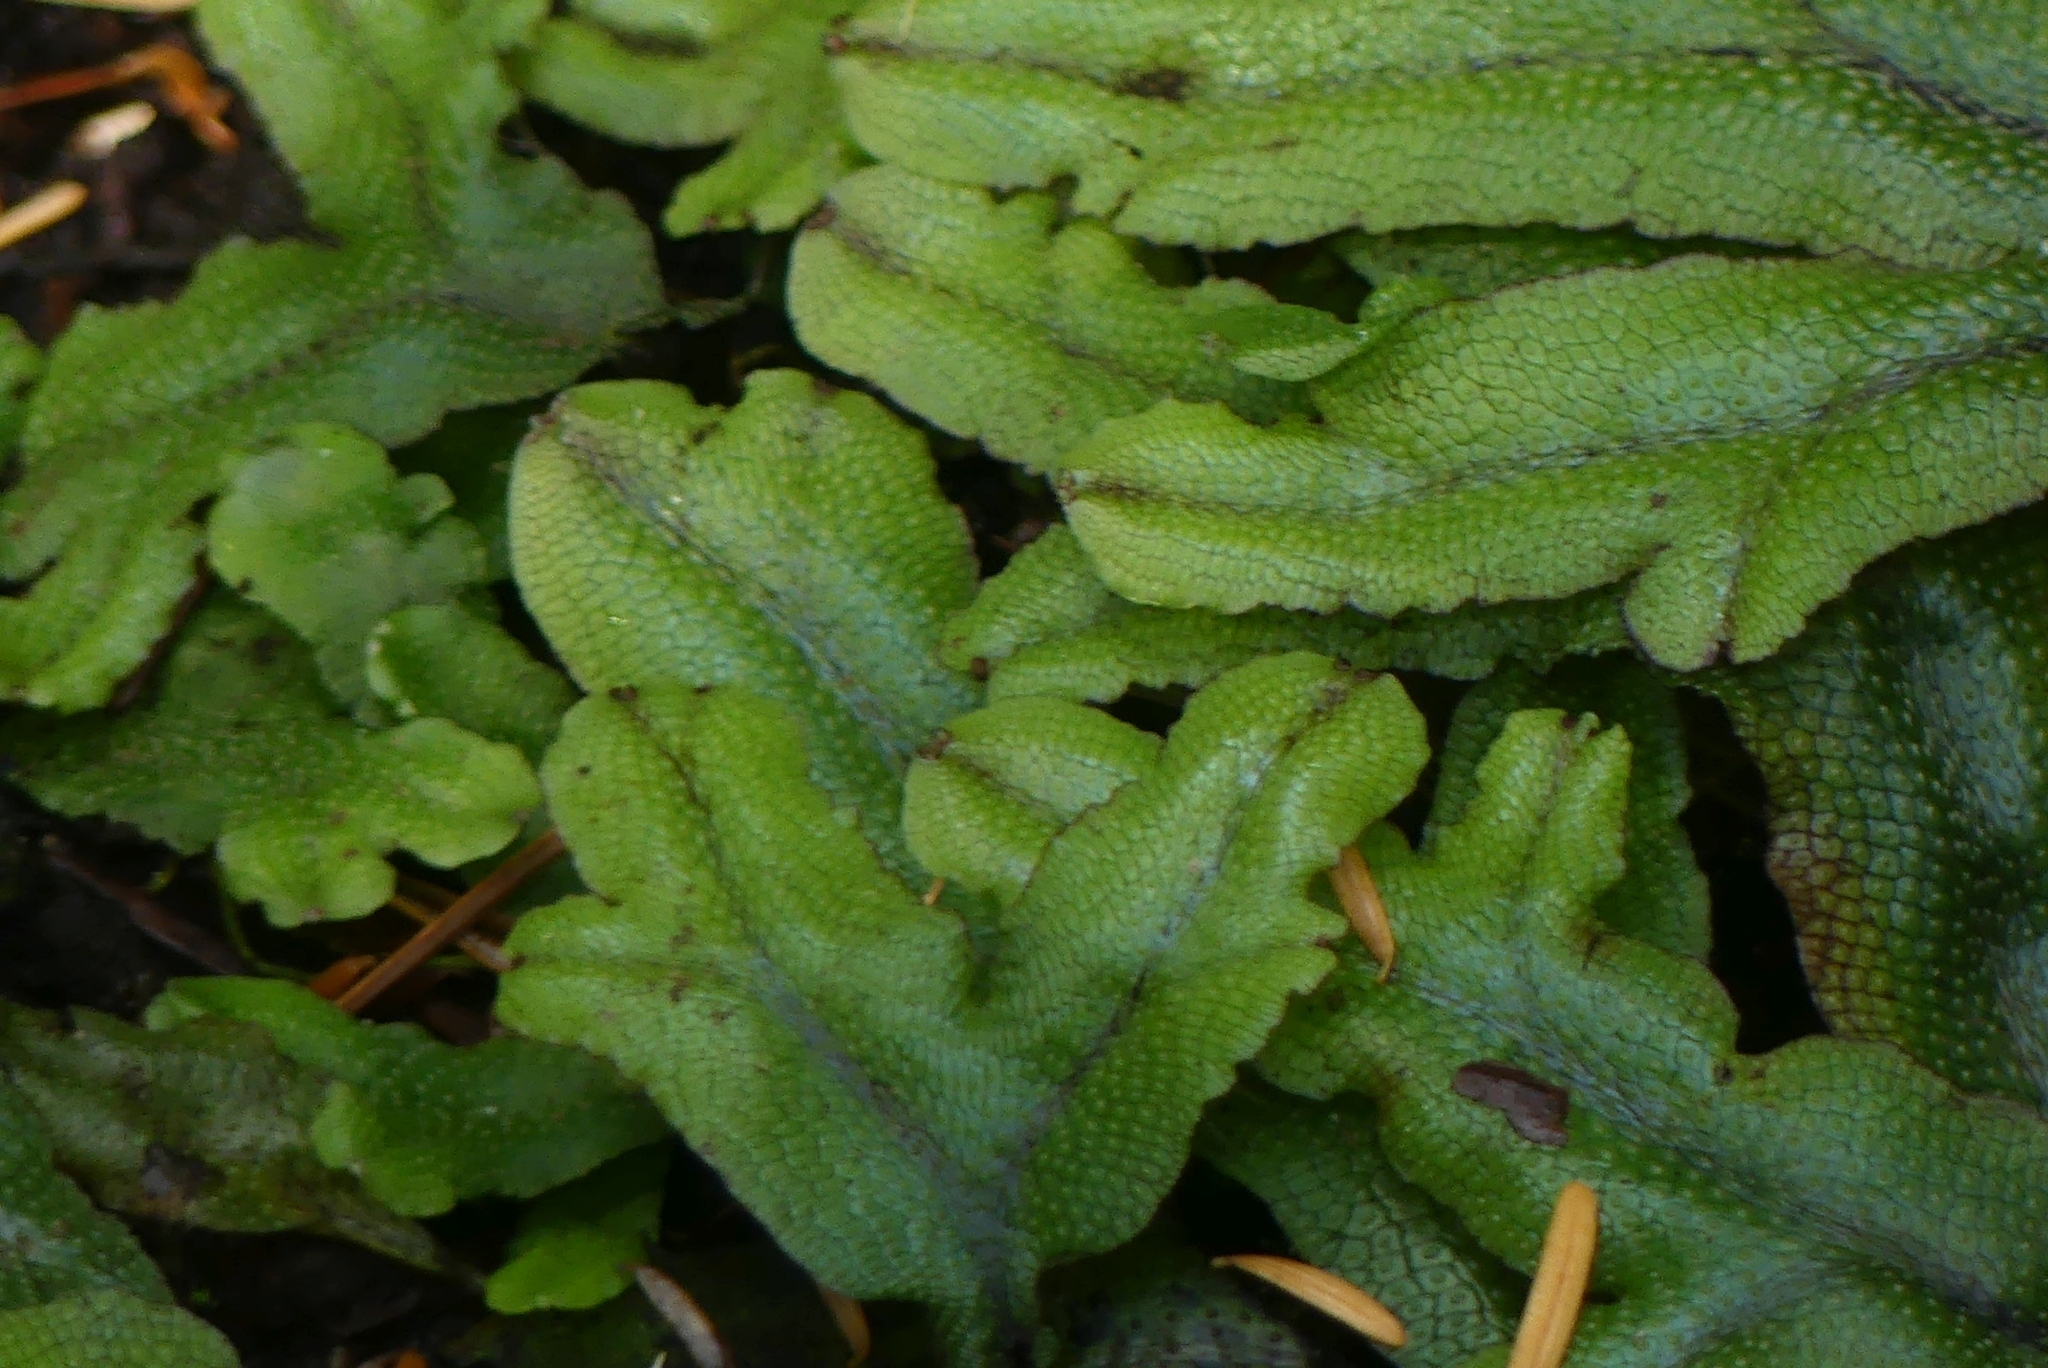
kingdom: Plantae
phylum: Marchantiophyta
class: Marchantiopsida
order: Marchantiales
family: Conocephalaceae
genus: Conocephalum
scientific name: Conocephalum salebrosum
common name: Cat-tongue liverwort
